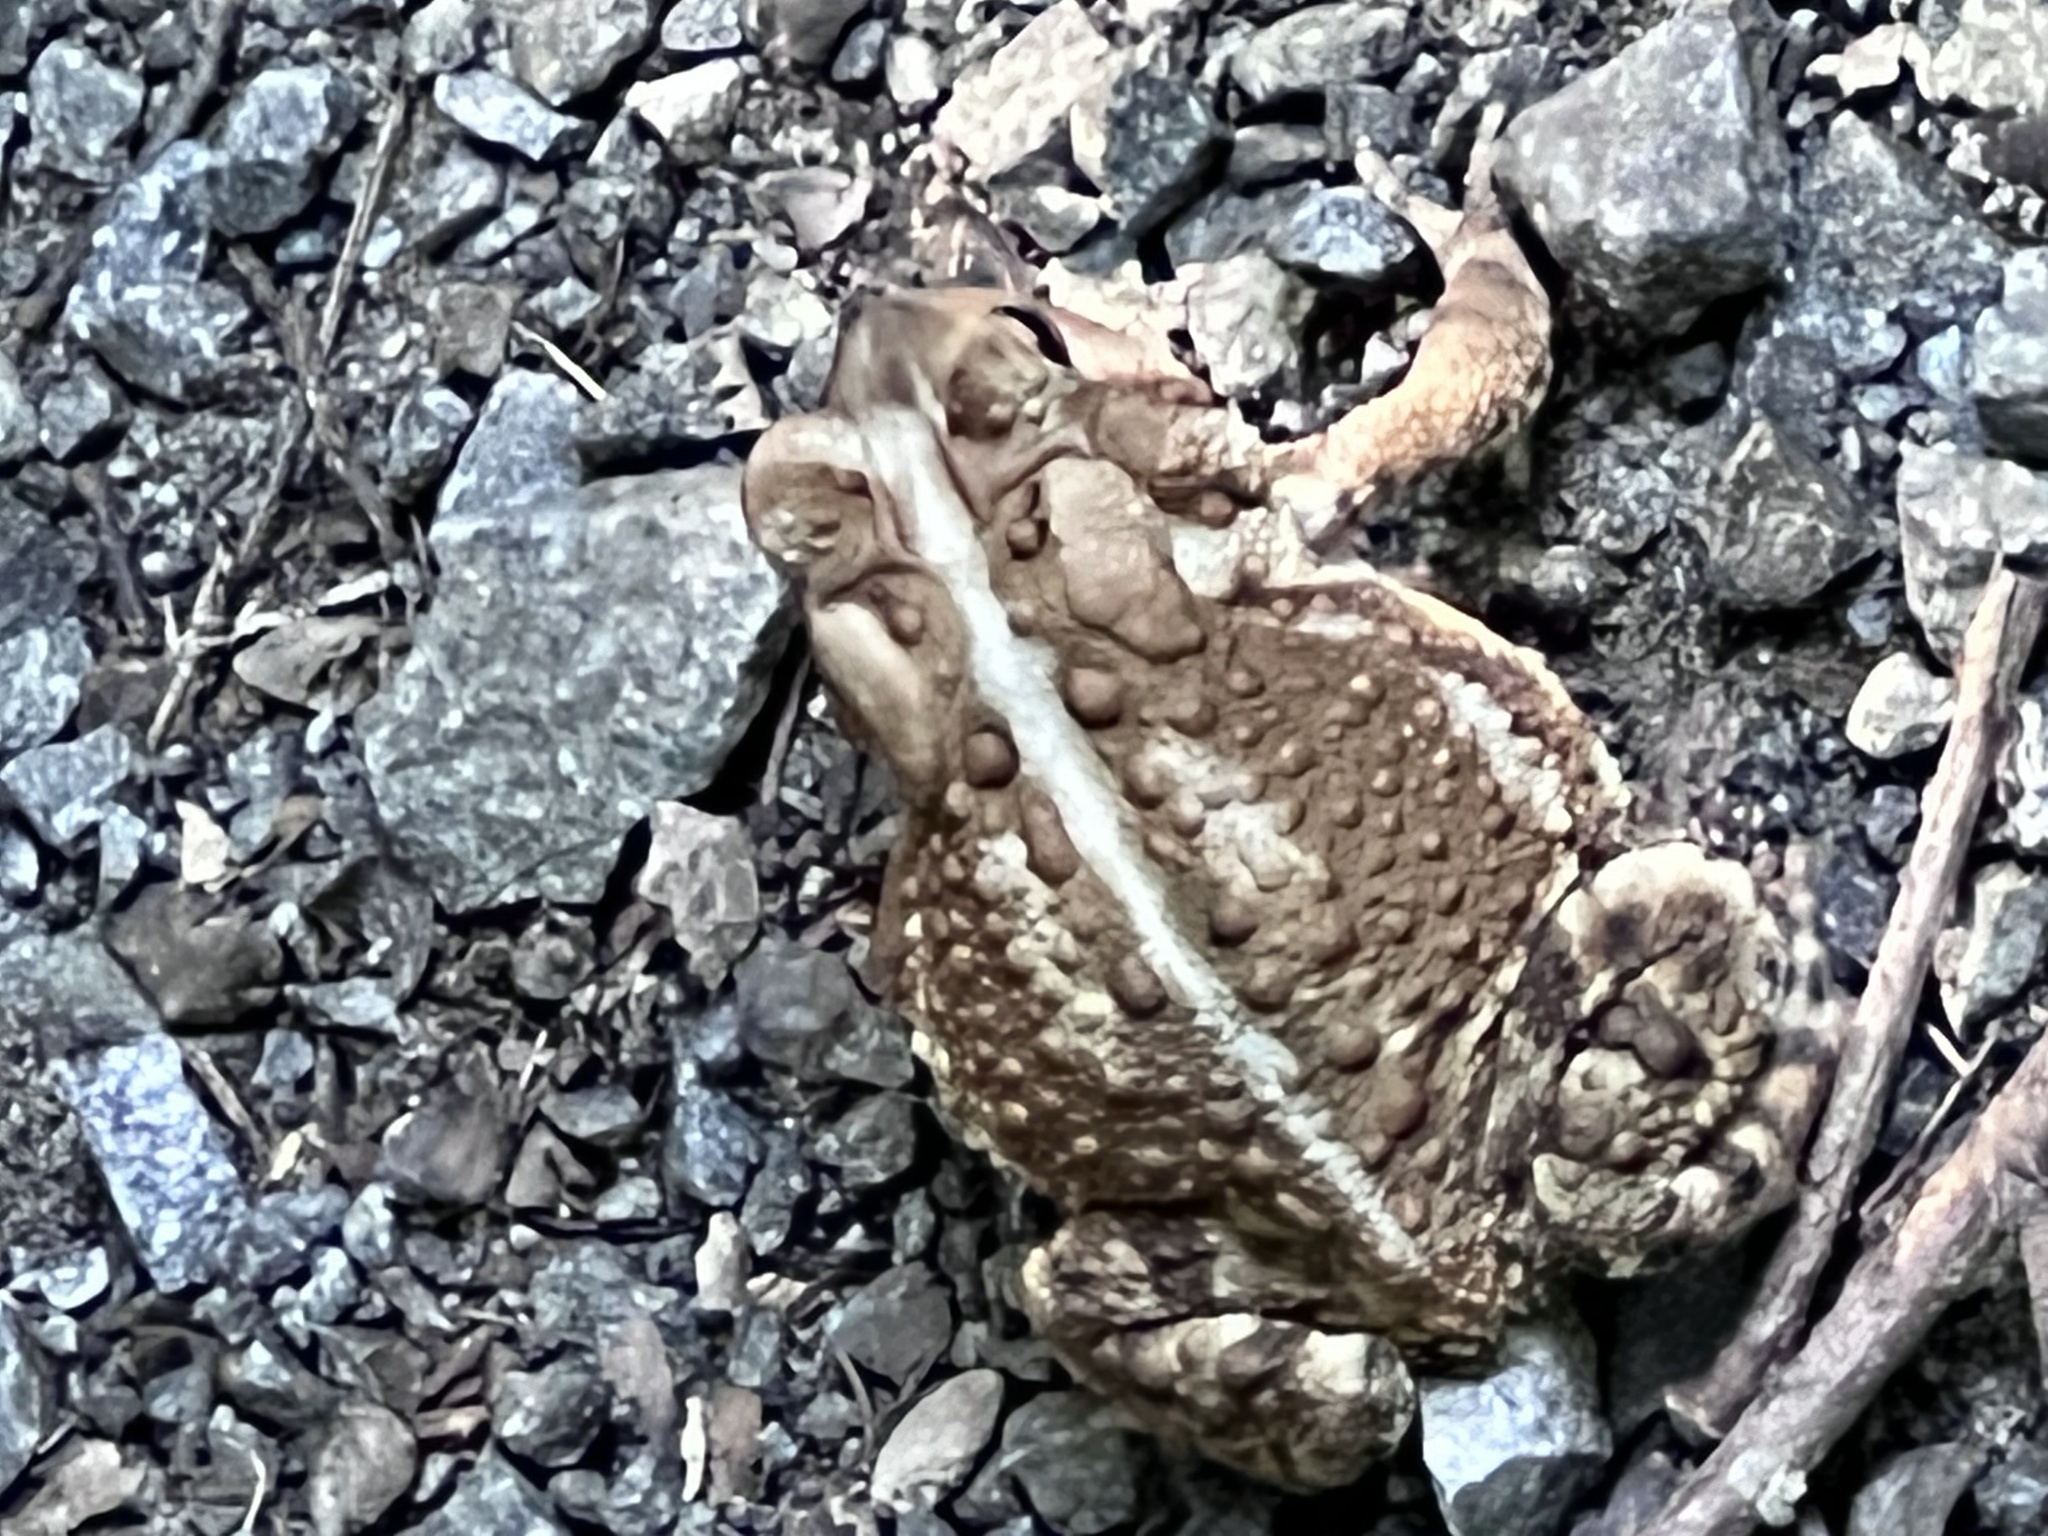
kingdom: Animalia
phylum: Chordata
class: Amphibia
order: Anura
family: Bufonidae
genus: Anaxyrus
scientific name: Anaxyrus americanus
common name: American toad
